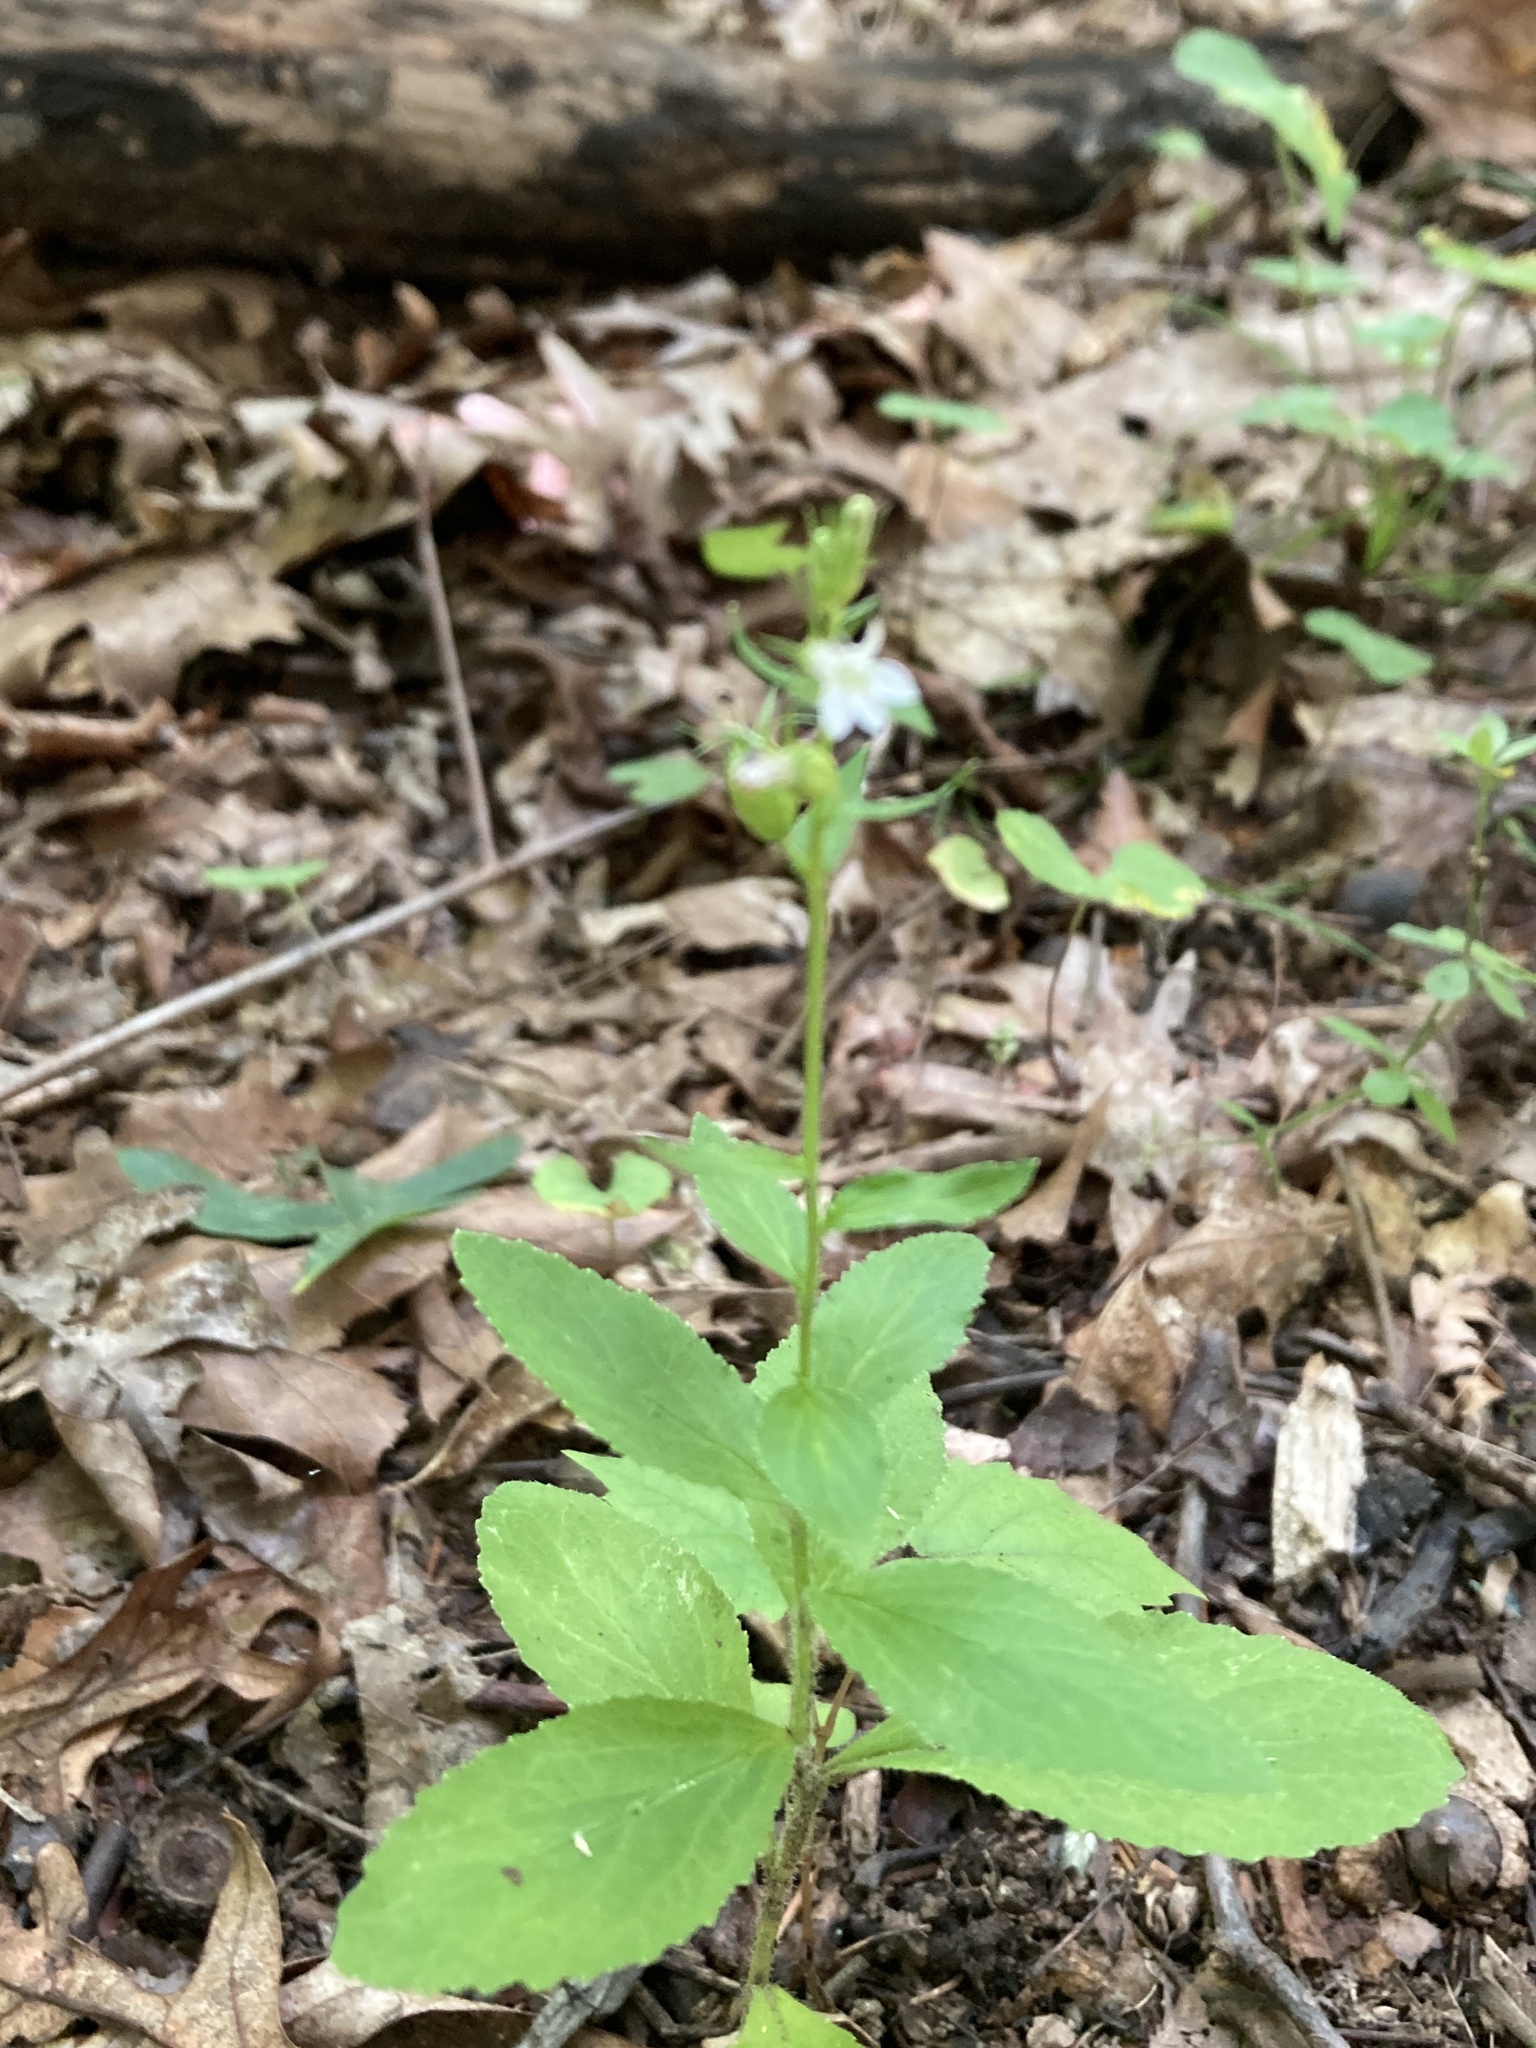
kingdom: Plantae
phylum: Tracheophyta
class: Magnoliopsida
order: Asterales
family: Campanulaceae
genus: Lobelia
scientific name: Lobelia inflata
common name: Indian tobacco
